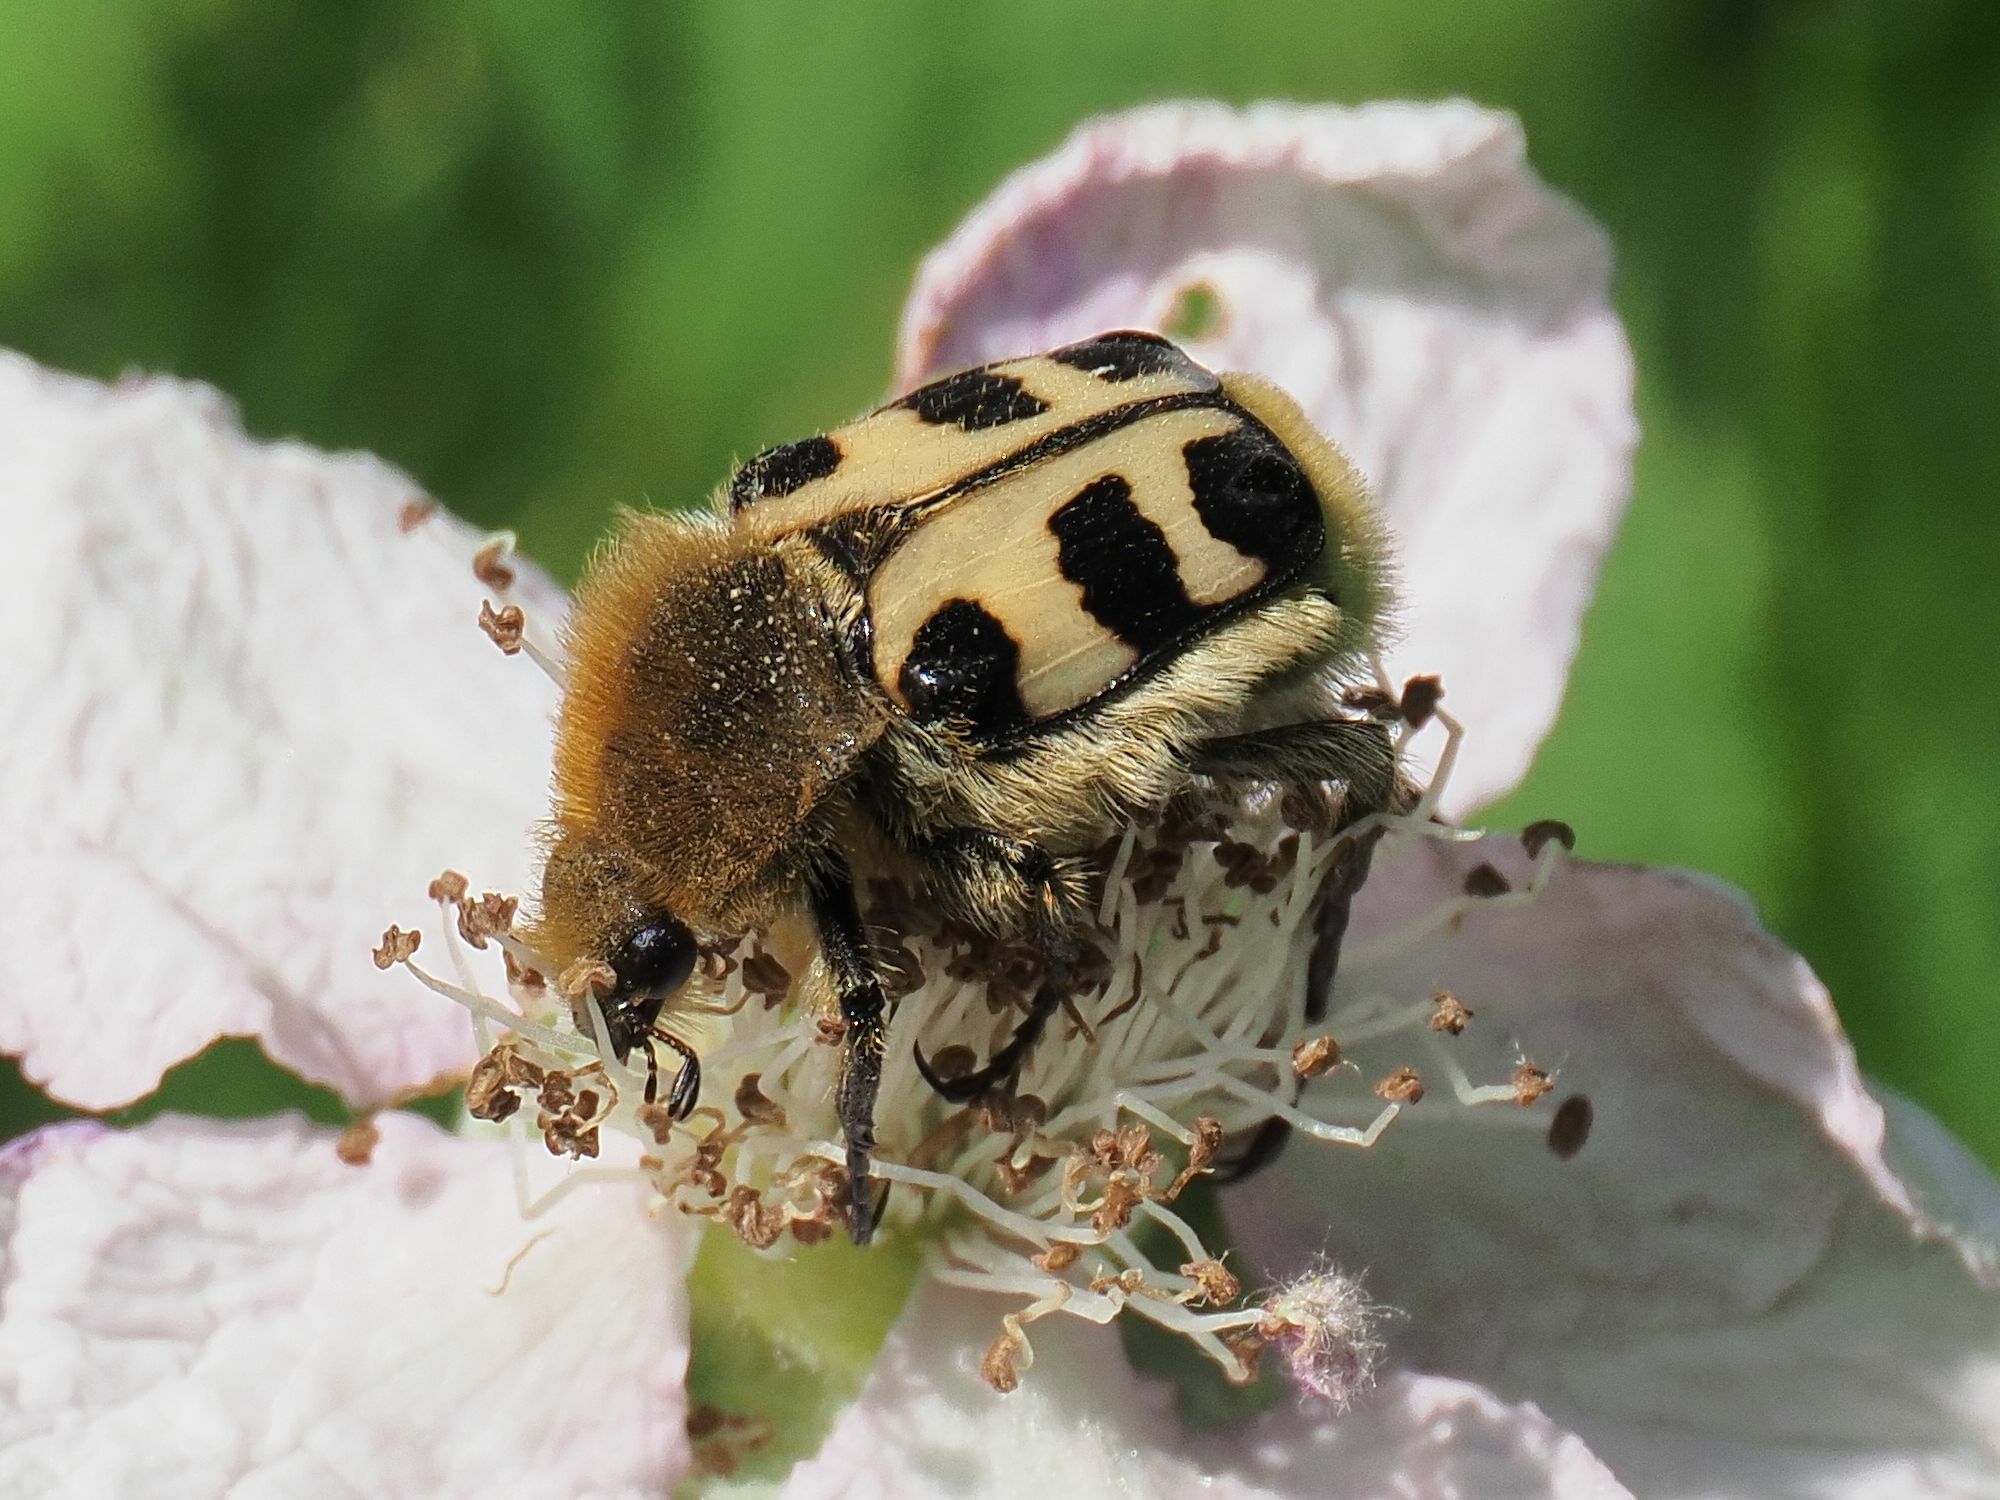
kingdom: Animalia
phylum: Arthropoda
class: Insecta
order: Coleoptera
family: Scarabaeidae
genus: Trichius
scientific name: Trichius gallicus
